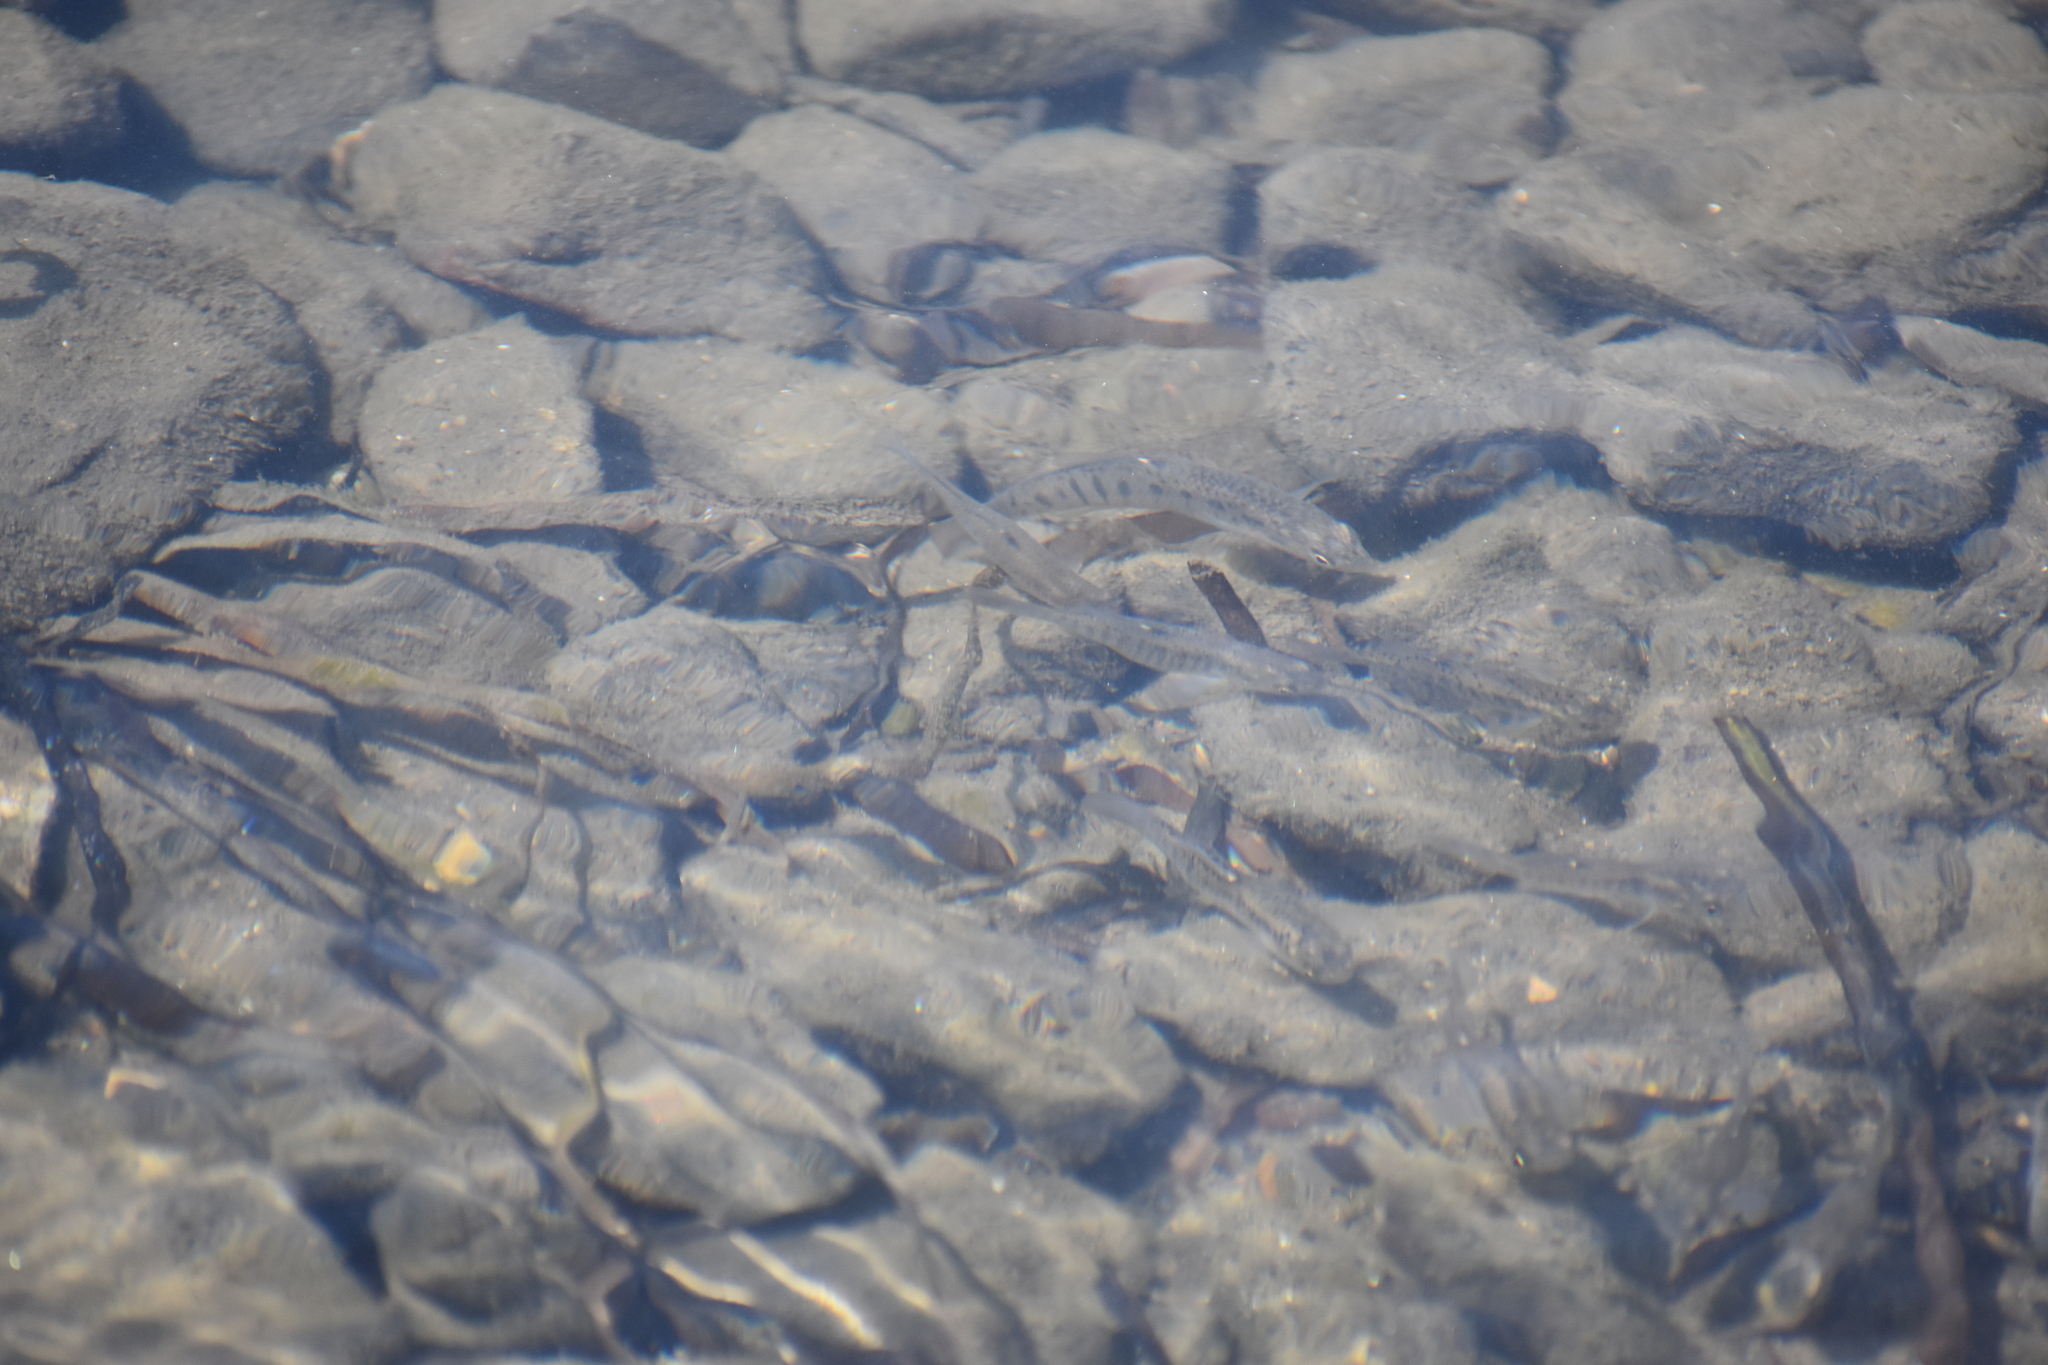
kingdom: Animalia
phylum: Chordata
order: Cyprinodontiformes
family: Fundulidae
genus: Fundulus
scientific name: Fundulus majalis
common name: Striped killifish
